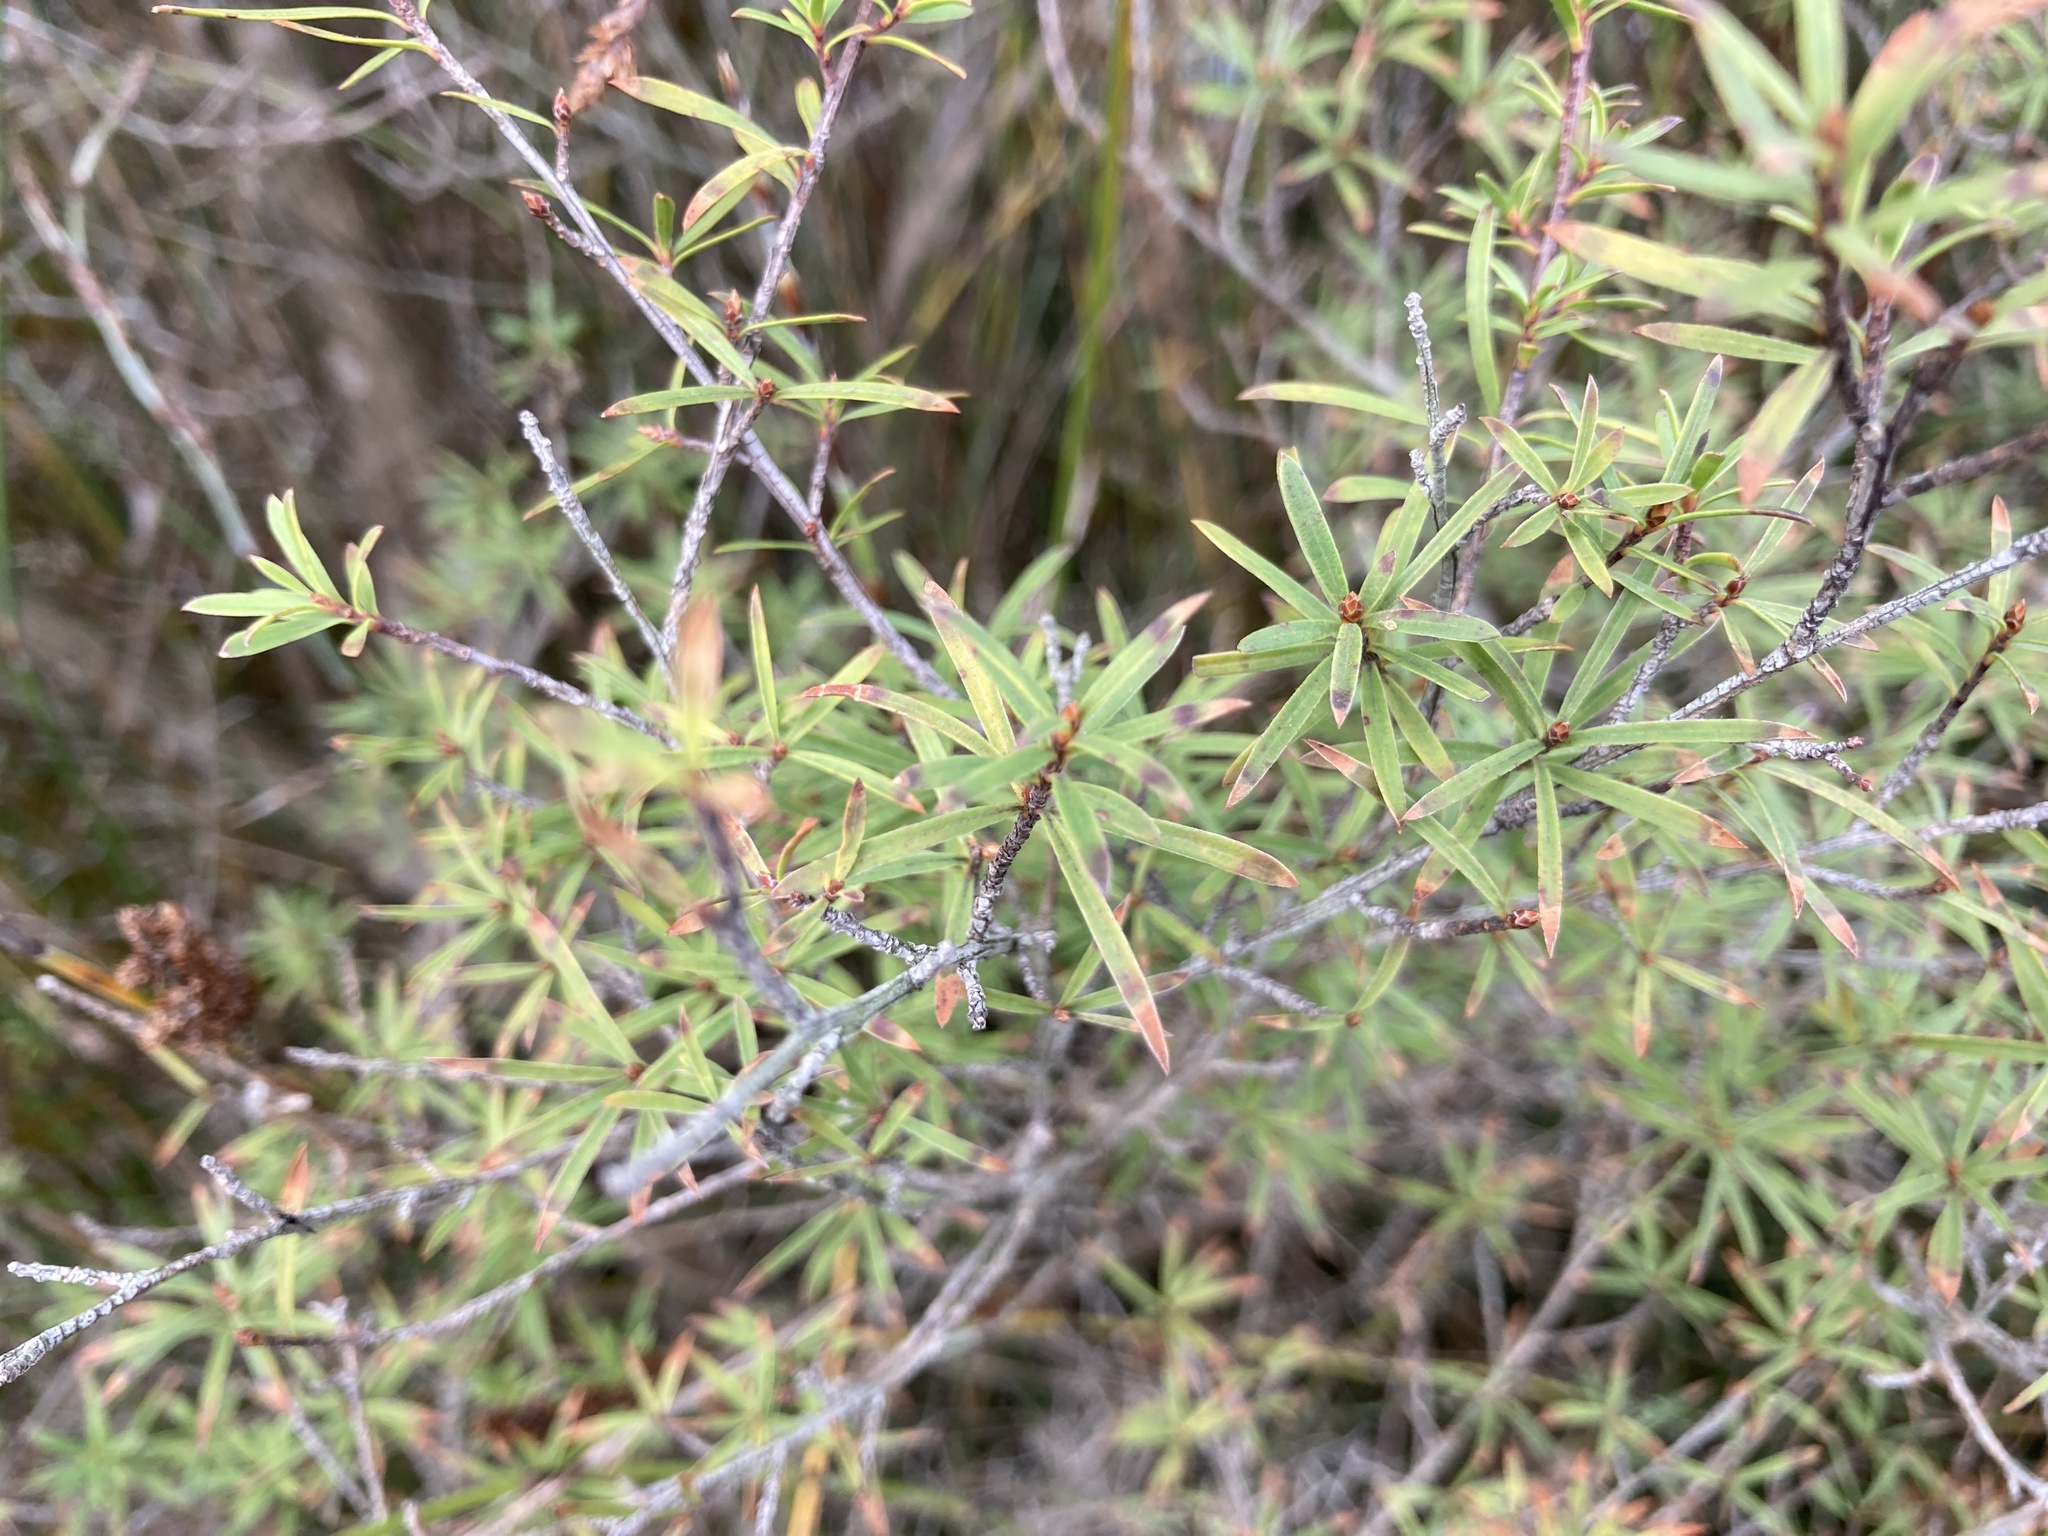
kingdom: Plantae
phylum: Tracheophyta
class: Magnoliopsida
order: Ericales
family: Ericaceae
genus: Leucopogon
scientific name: Leucopogon fasciculatus
